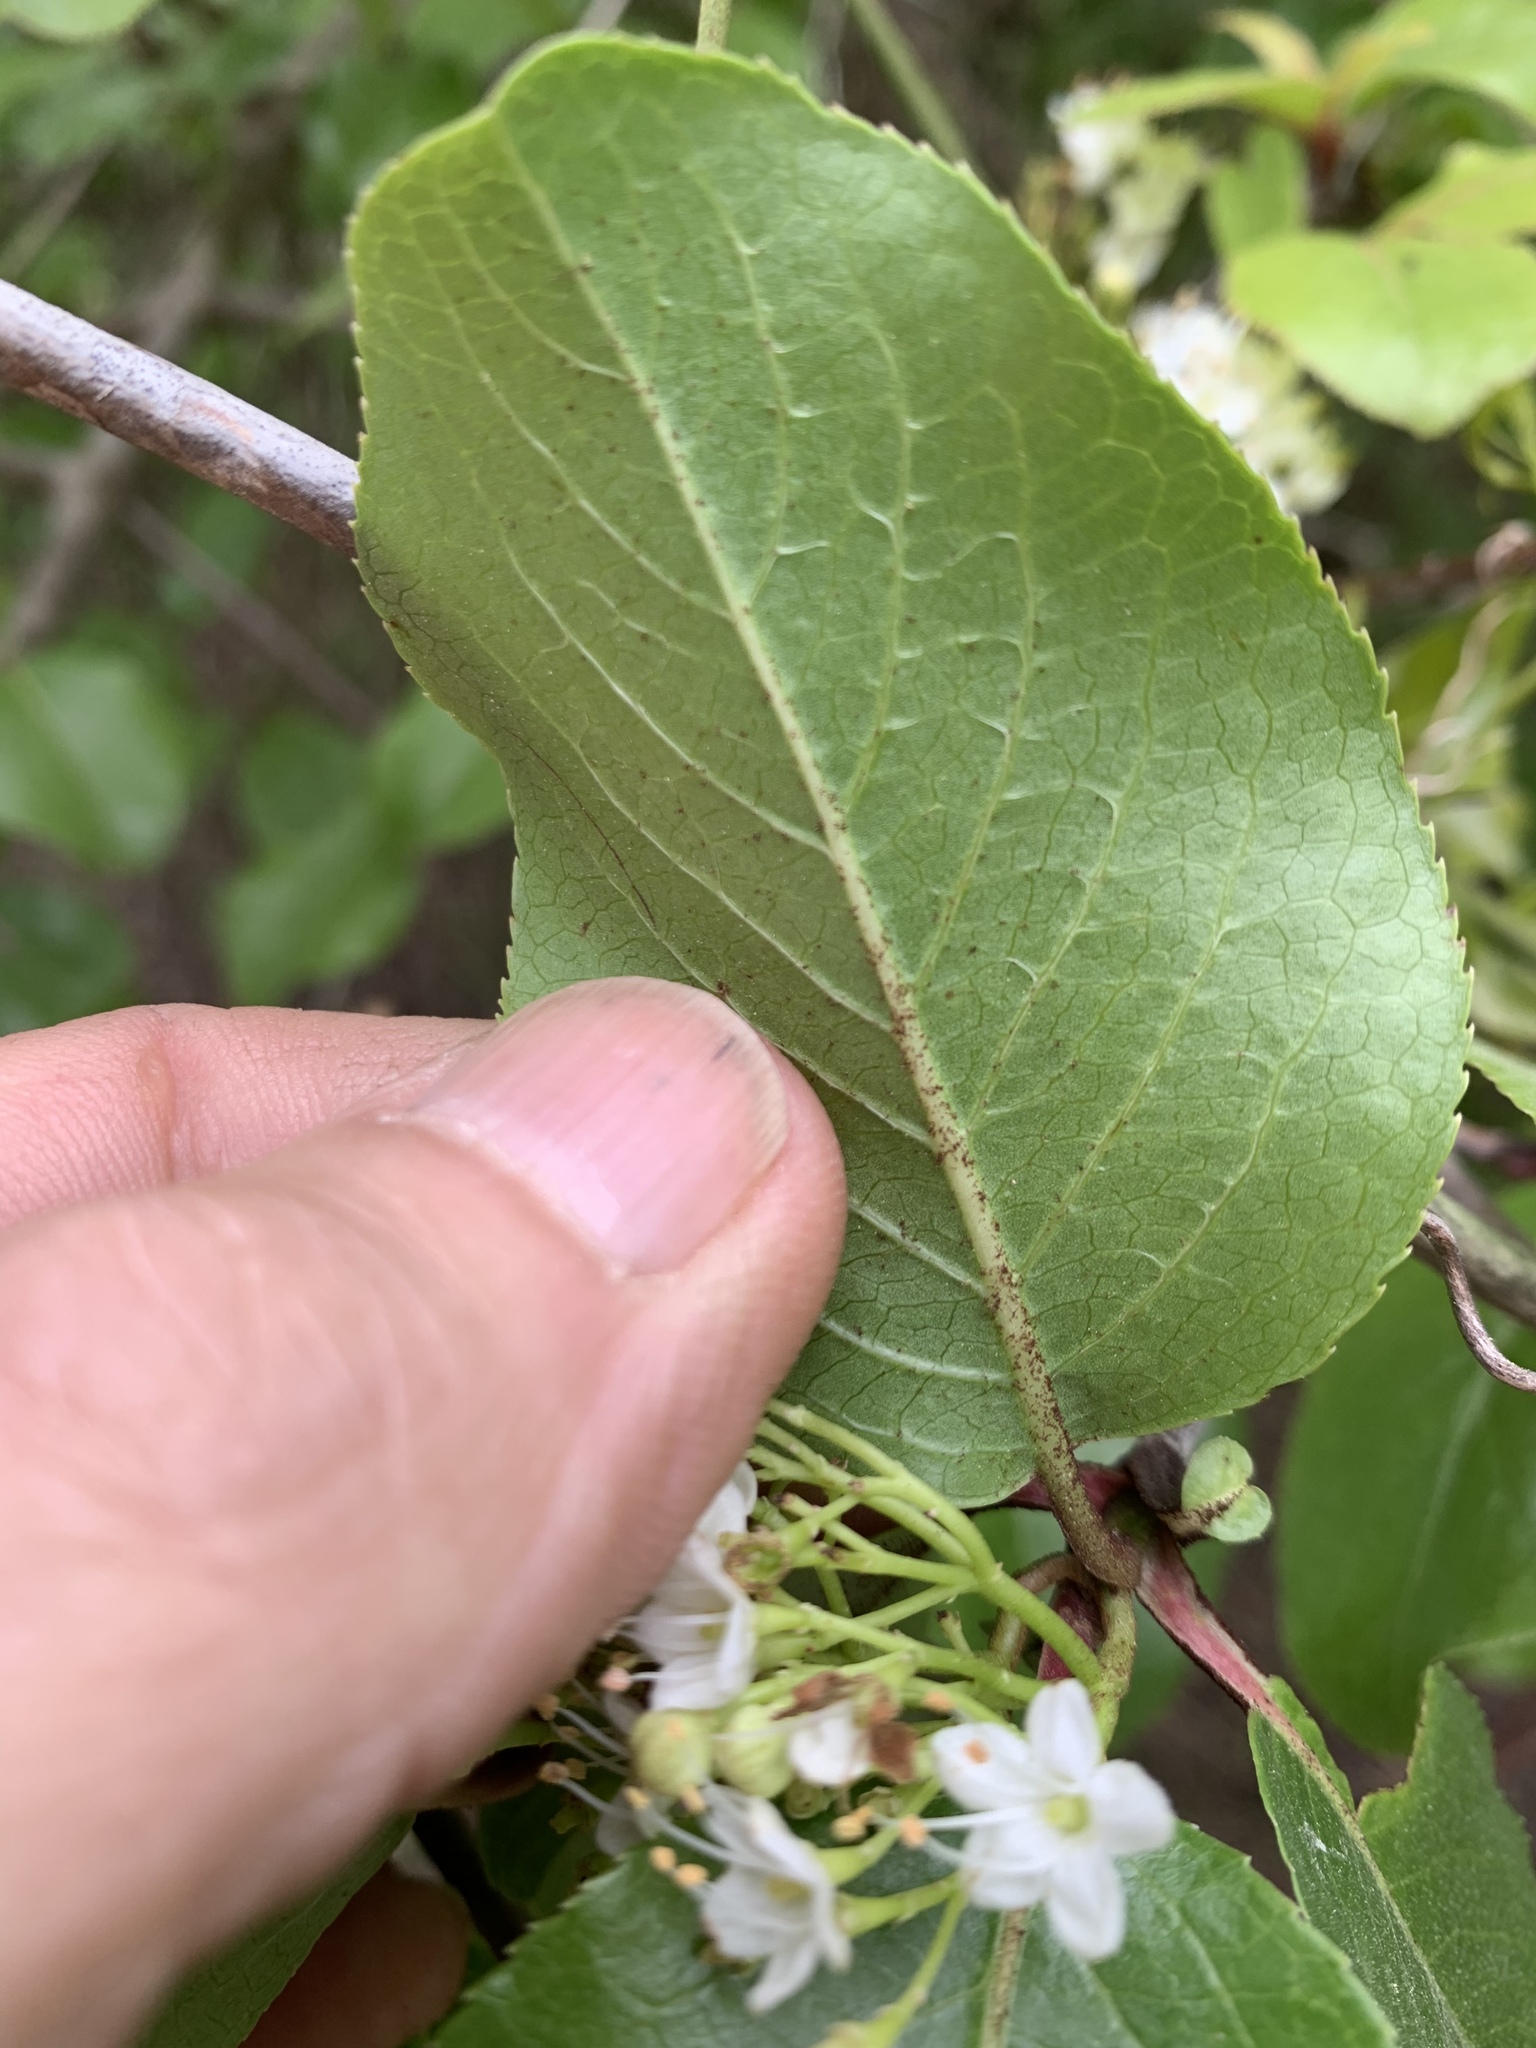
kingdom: Plantae
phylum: Tracheophyta
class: Magnoliopsida
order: Dipsacales
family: Viburnaceae
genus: Viburnum
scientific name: Viburnum rufidulum
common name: Blue haw
